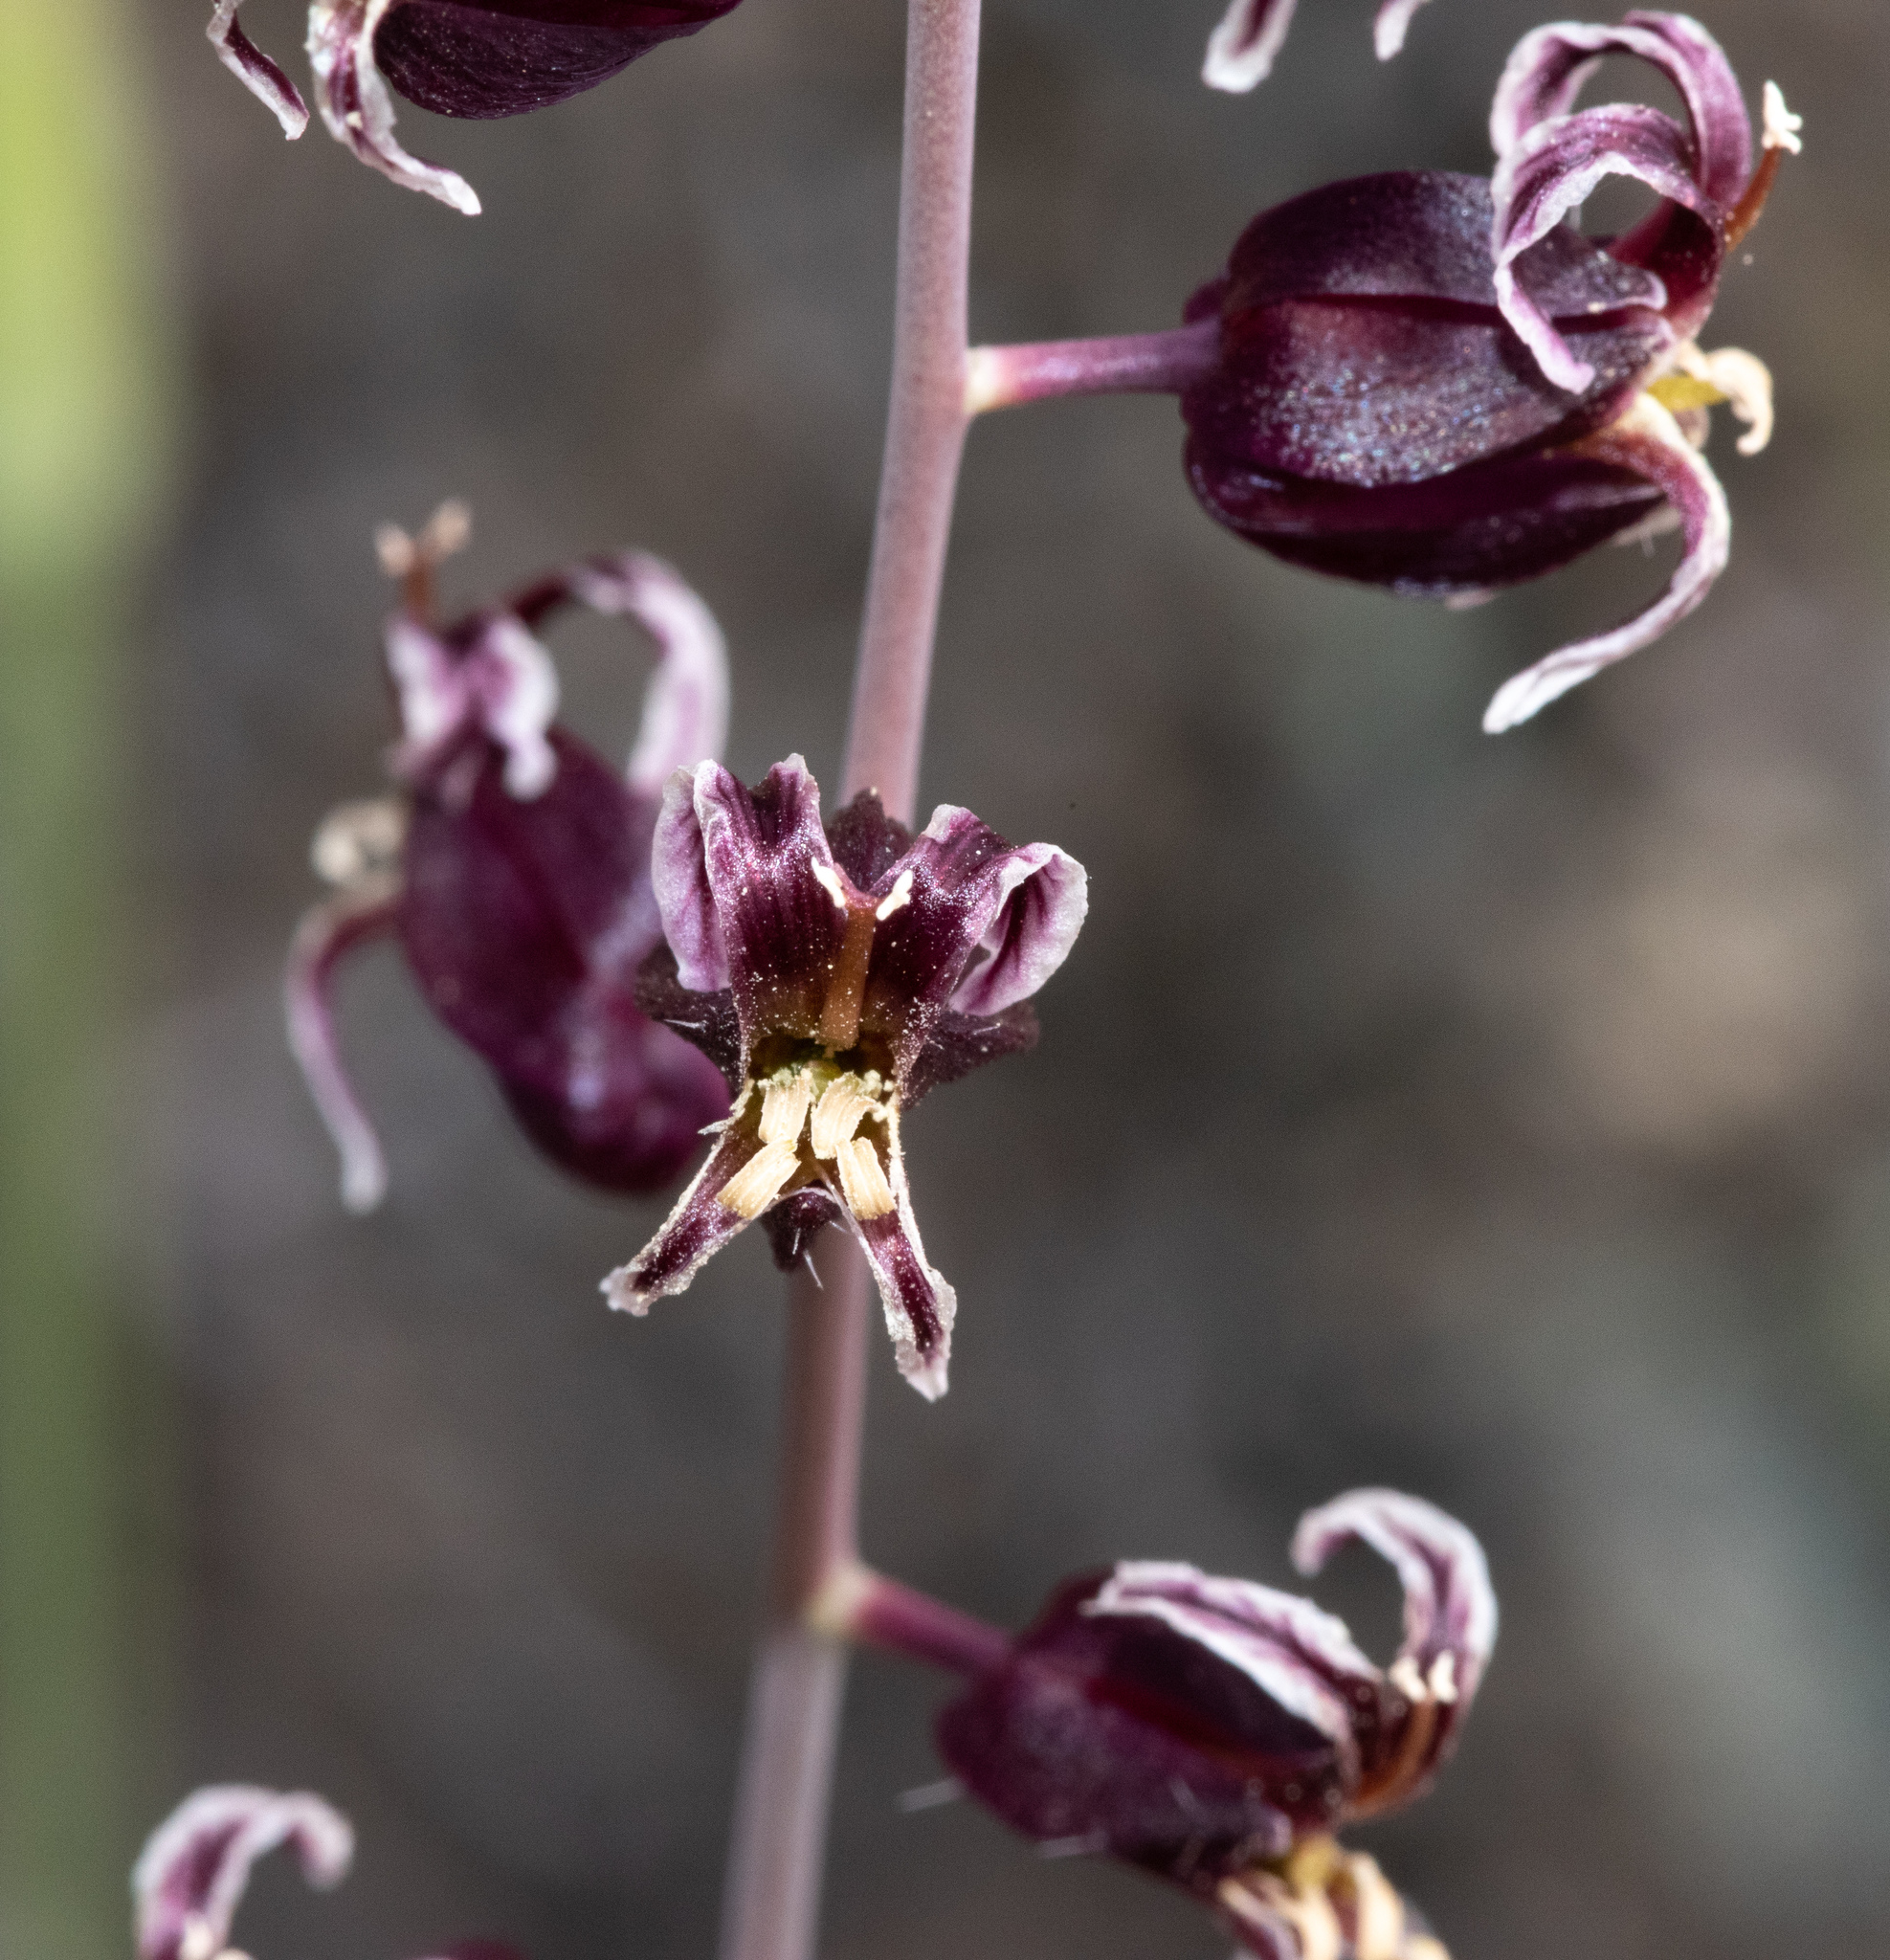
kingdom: Plantae
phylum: Tracheophyta
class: Magnoliopsida
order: Brassicales
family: Brassicaceae
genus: Streptanthus
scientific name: Streptanthus glandulosus
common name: Jewel-flower
